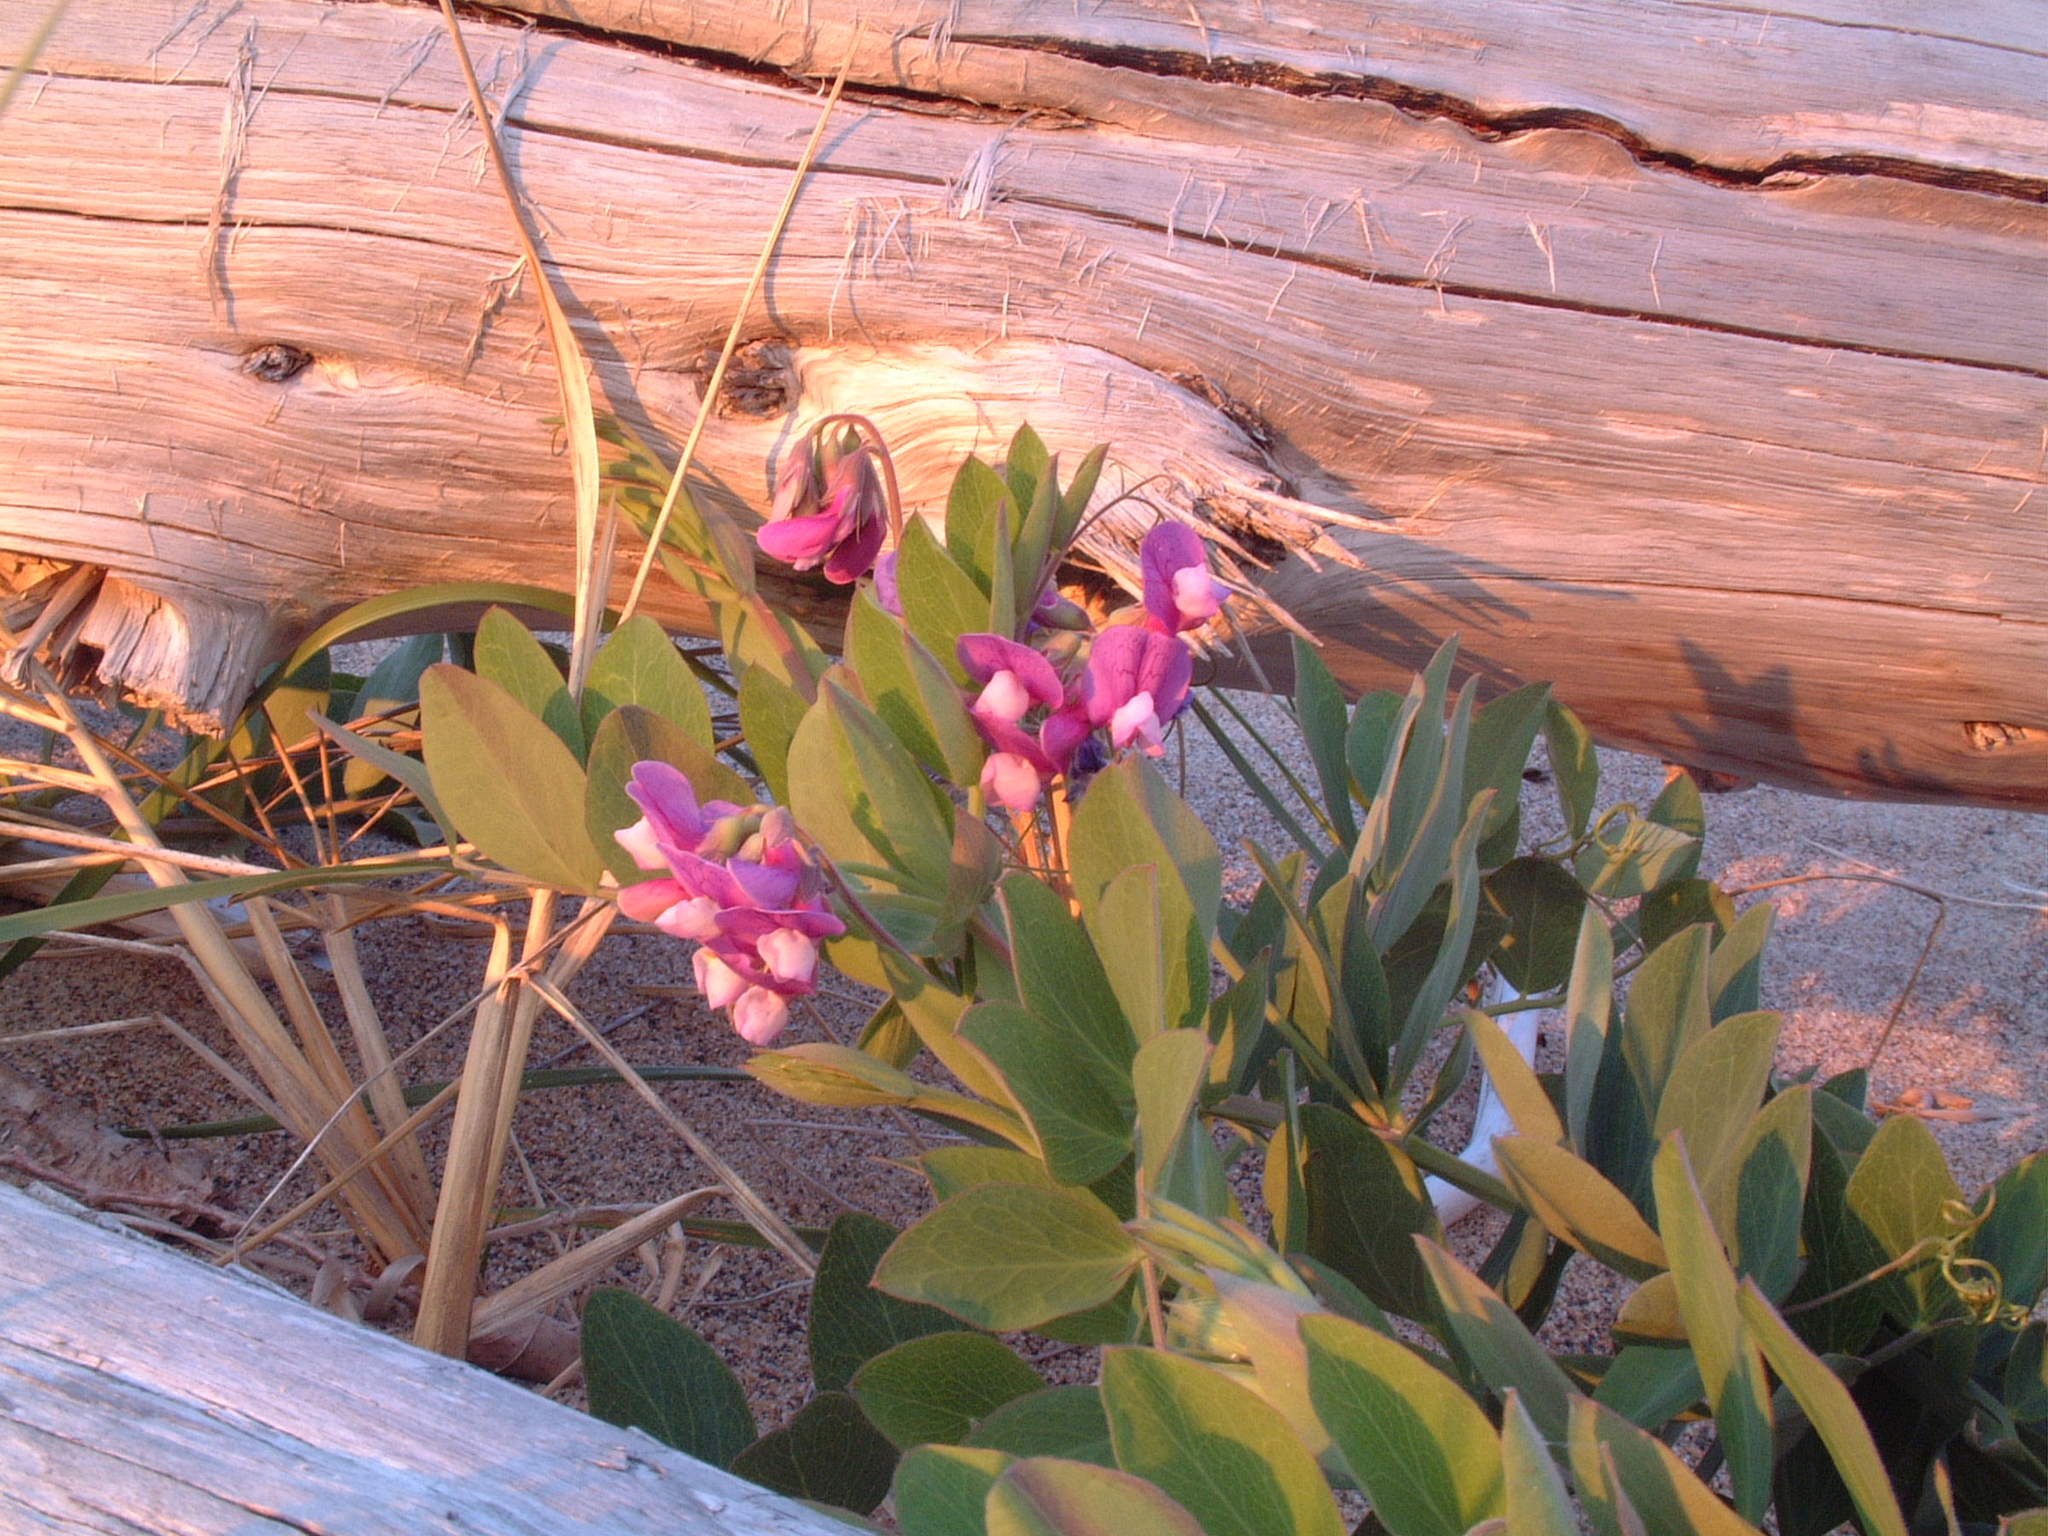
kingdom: Plantae
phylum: Tracheophyta
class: Magnoliopsida
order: Fabales
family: Fabaceae
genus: Lathyrus
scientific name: Lathyrus japonicus
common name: Sea pea
